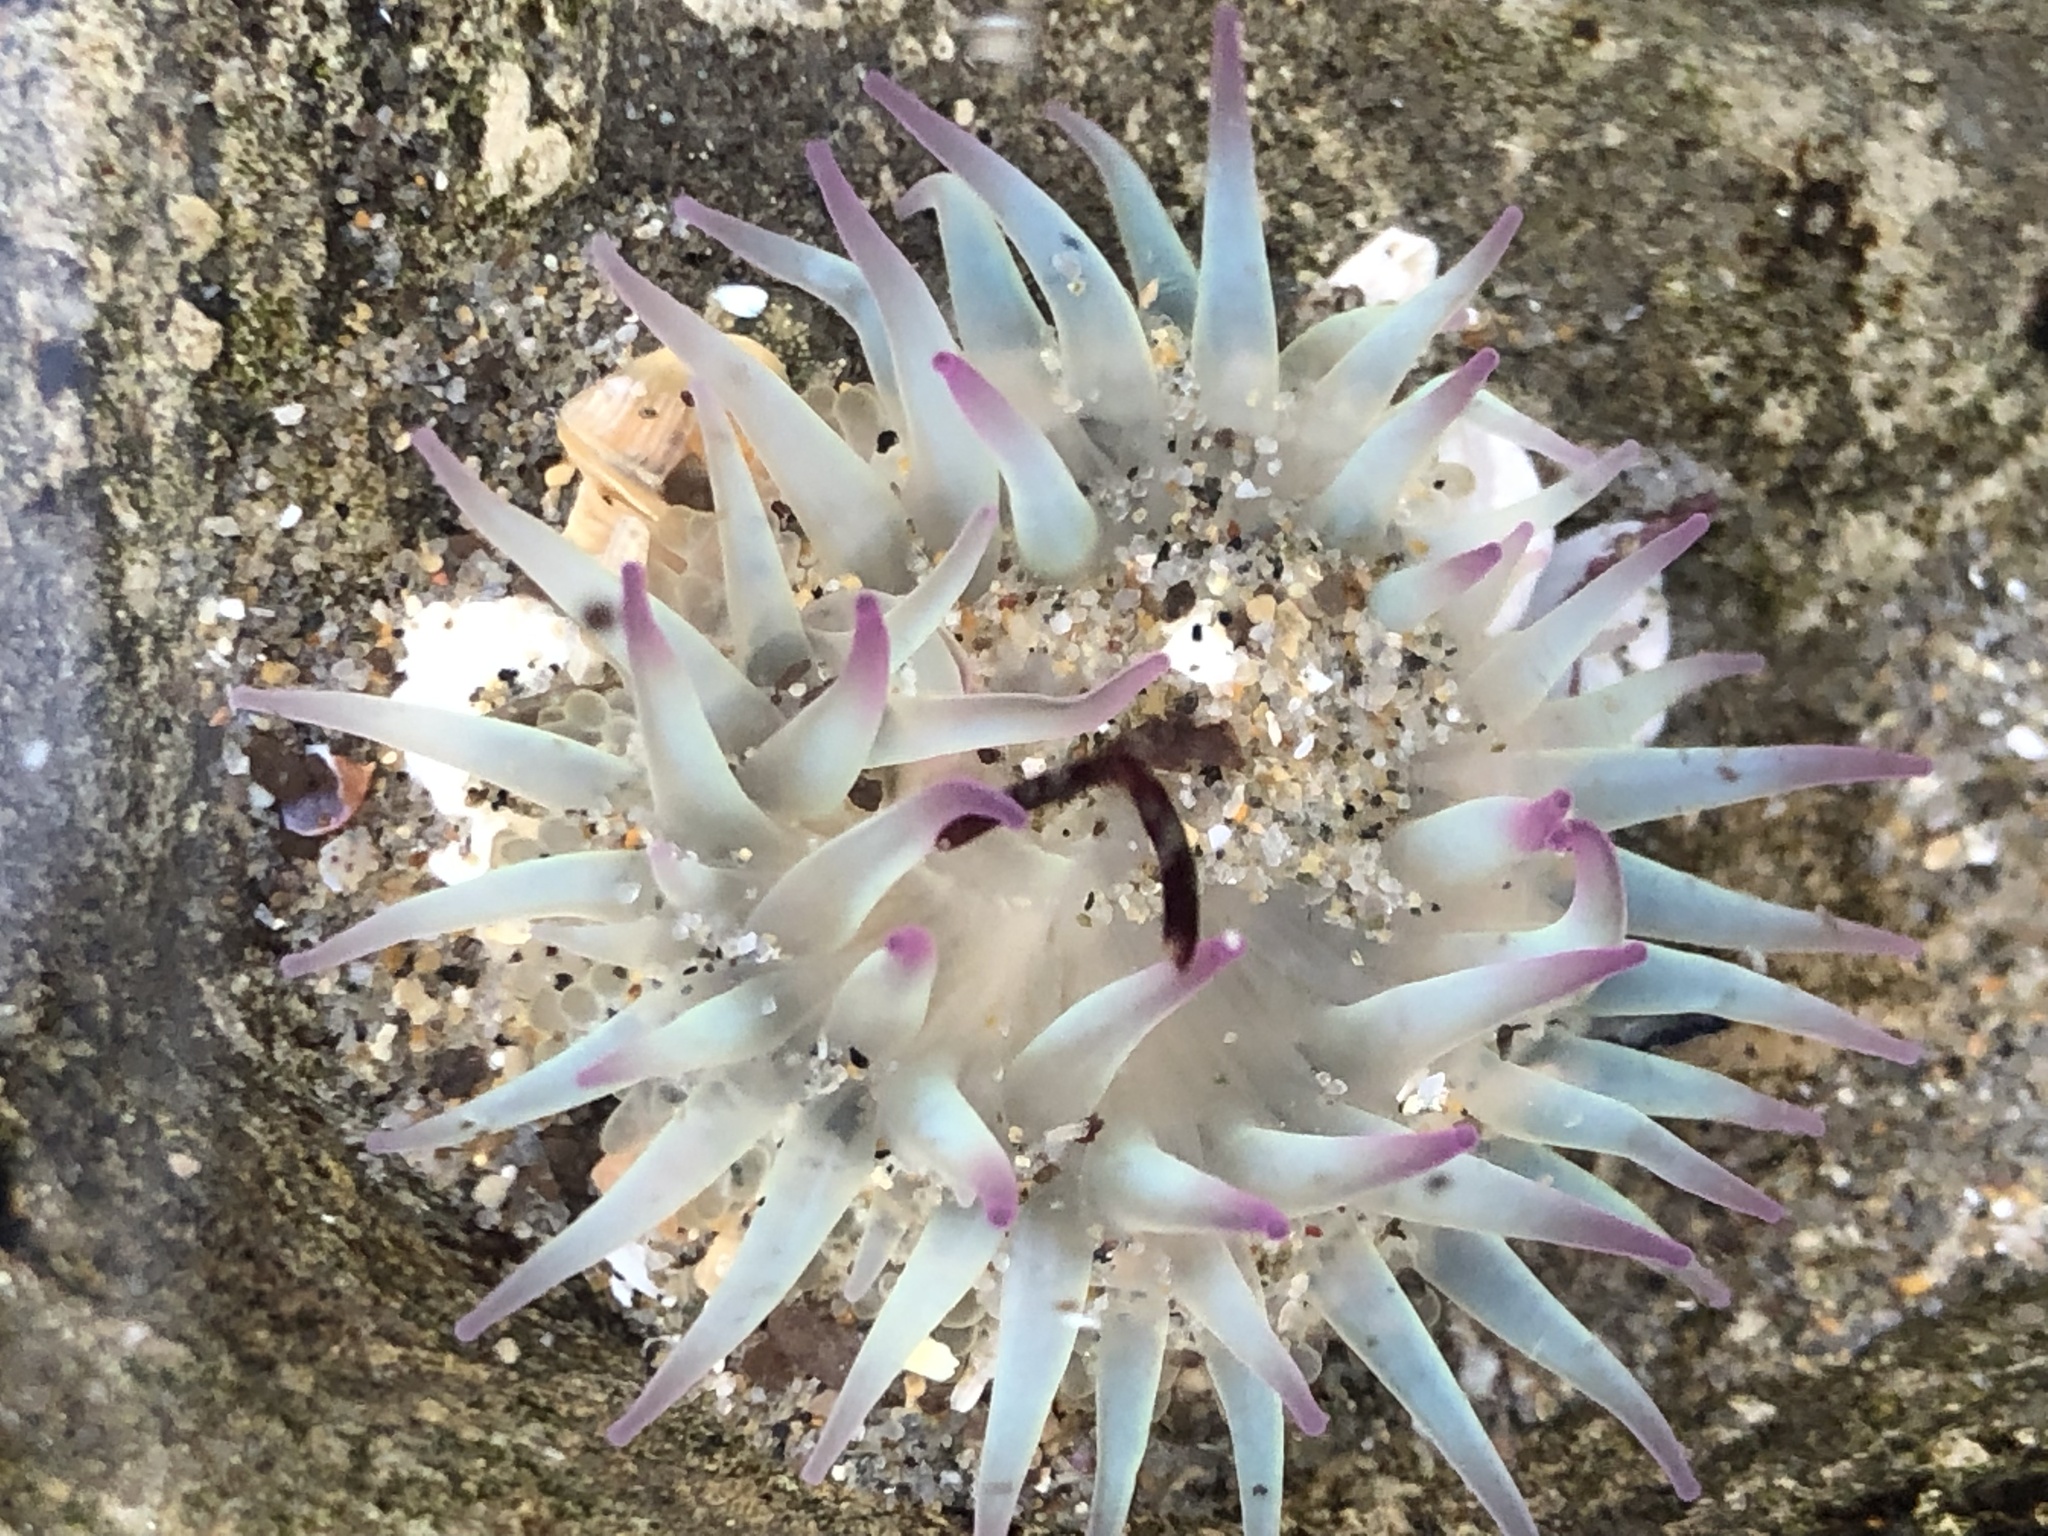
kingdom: Animalia
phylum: Cnidaria
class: Anthozoa
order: Actiniaria
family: Actiniidae
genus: Anthopleura
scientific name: Anthopleura elegantissima
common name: Clonal anemone
